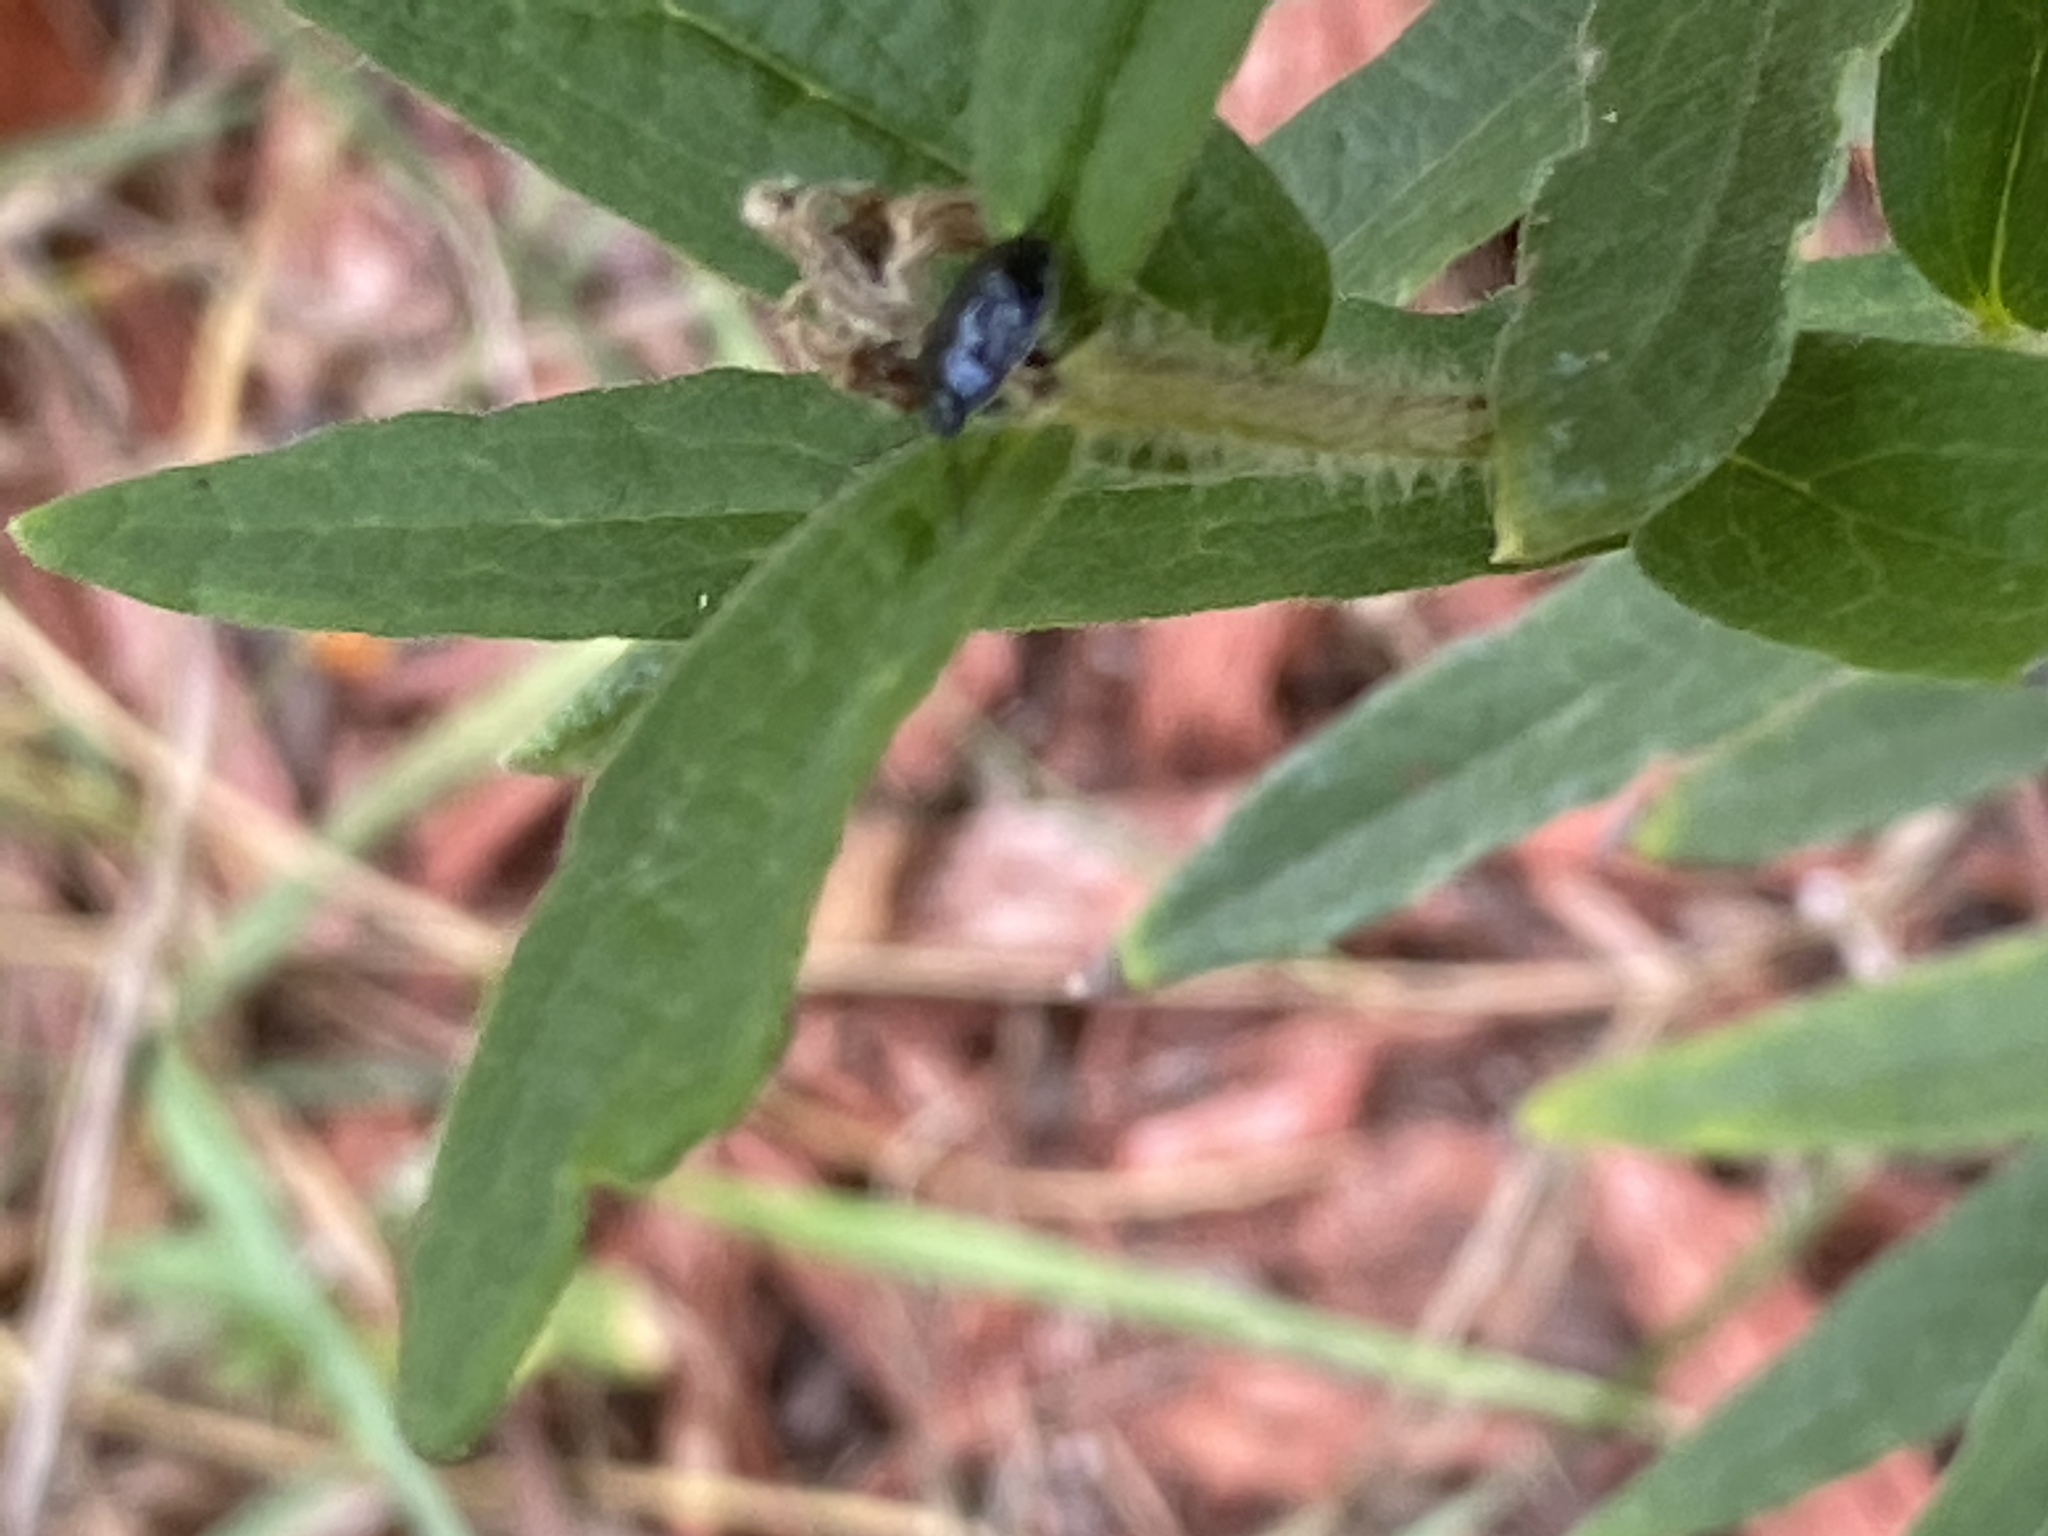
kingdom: Animalia
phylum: Arthropoda
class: Insecta
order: Hemiptera
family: Cydnidae
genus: Sehirus
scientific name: Sehirus cinctus
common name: White-margined burrower bug
